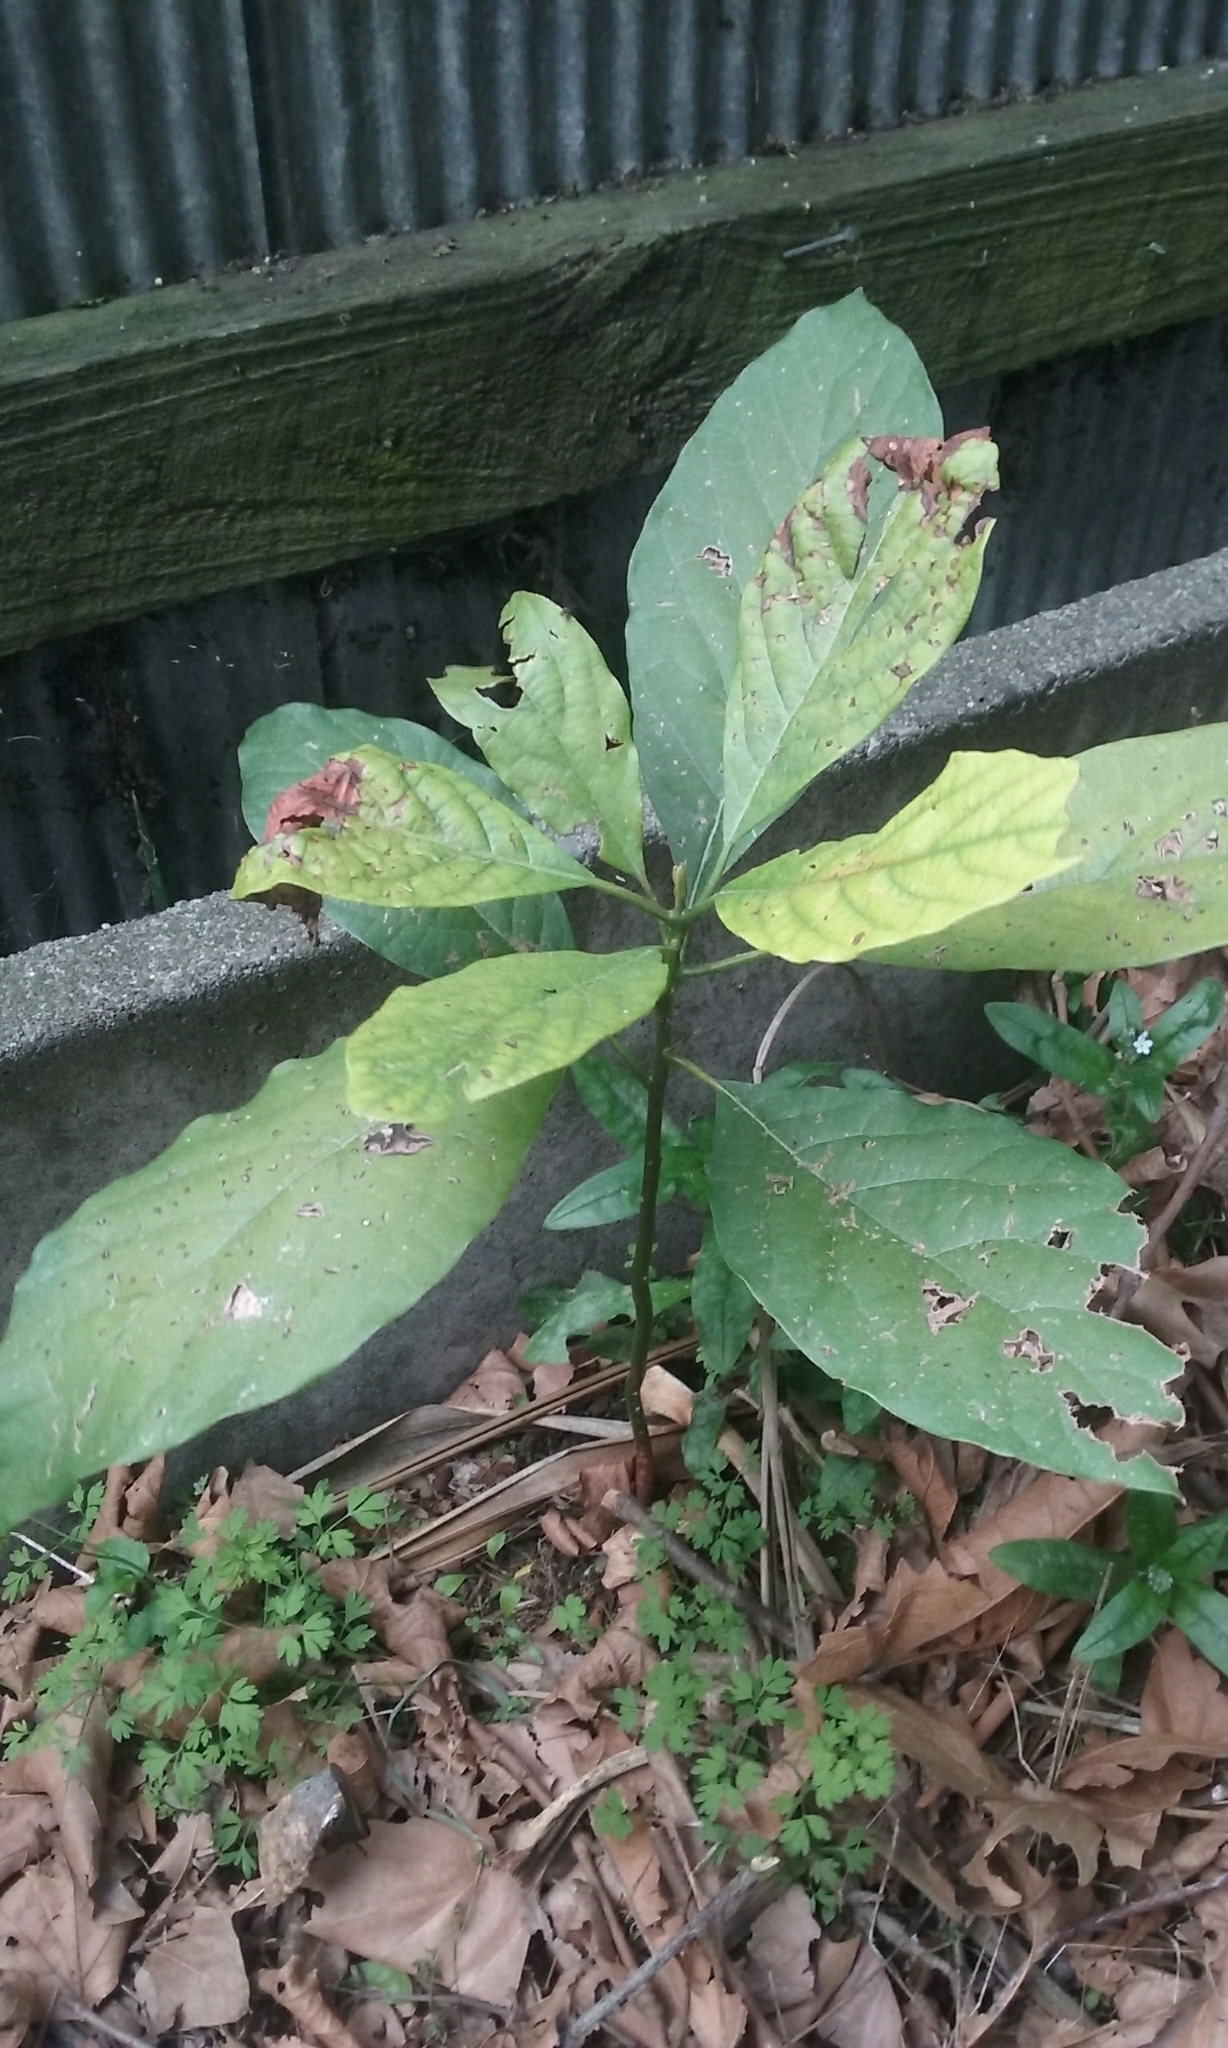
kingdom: Plantae
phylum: Tracheophyta
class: Magnoliopsida
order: Laurales
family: Lauraceae
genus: Persea
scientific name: Persea americana
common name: Avocado
